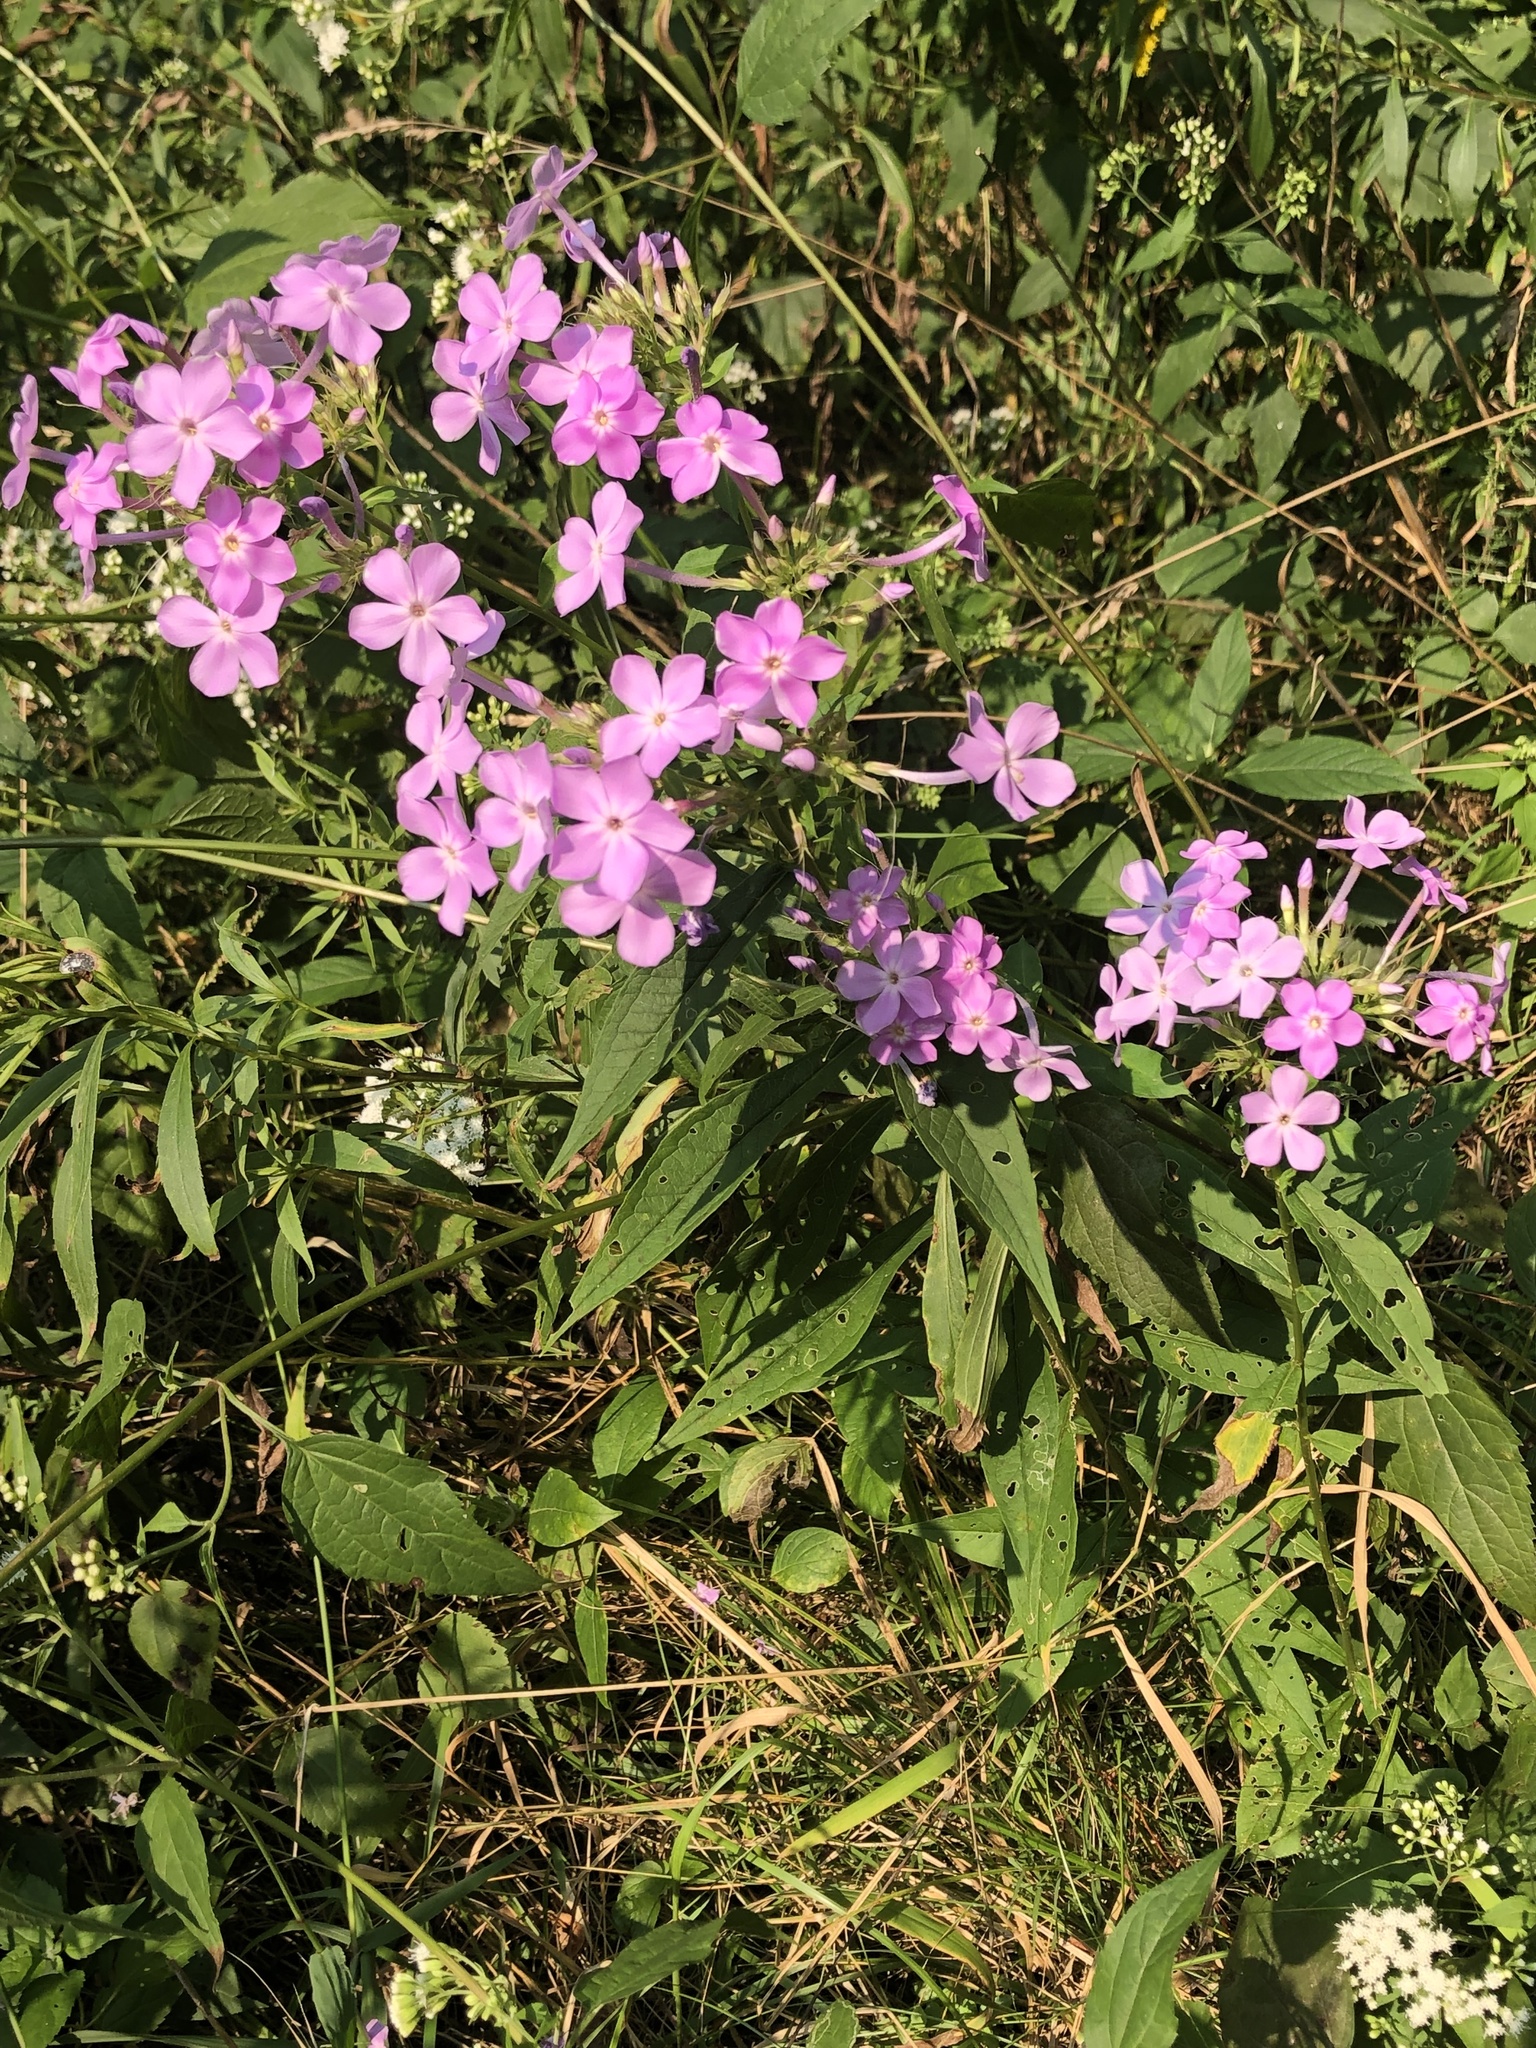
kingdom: Plantae
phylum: Tracheophyta
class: Magnoliopsida
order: Ericales
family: Polemoniaceae
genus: Phlox
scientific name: Phlox paniculata
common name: Fall phlox
